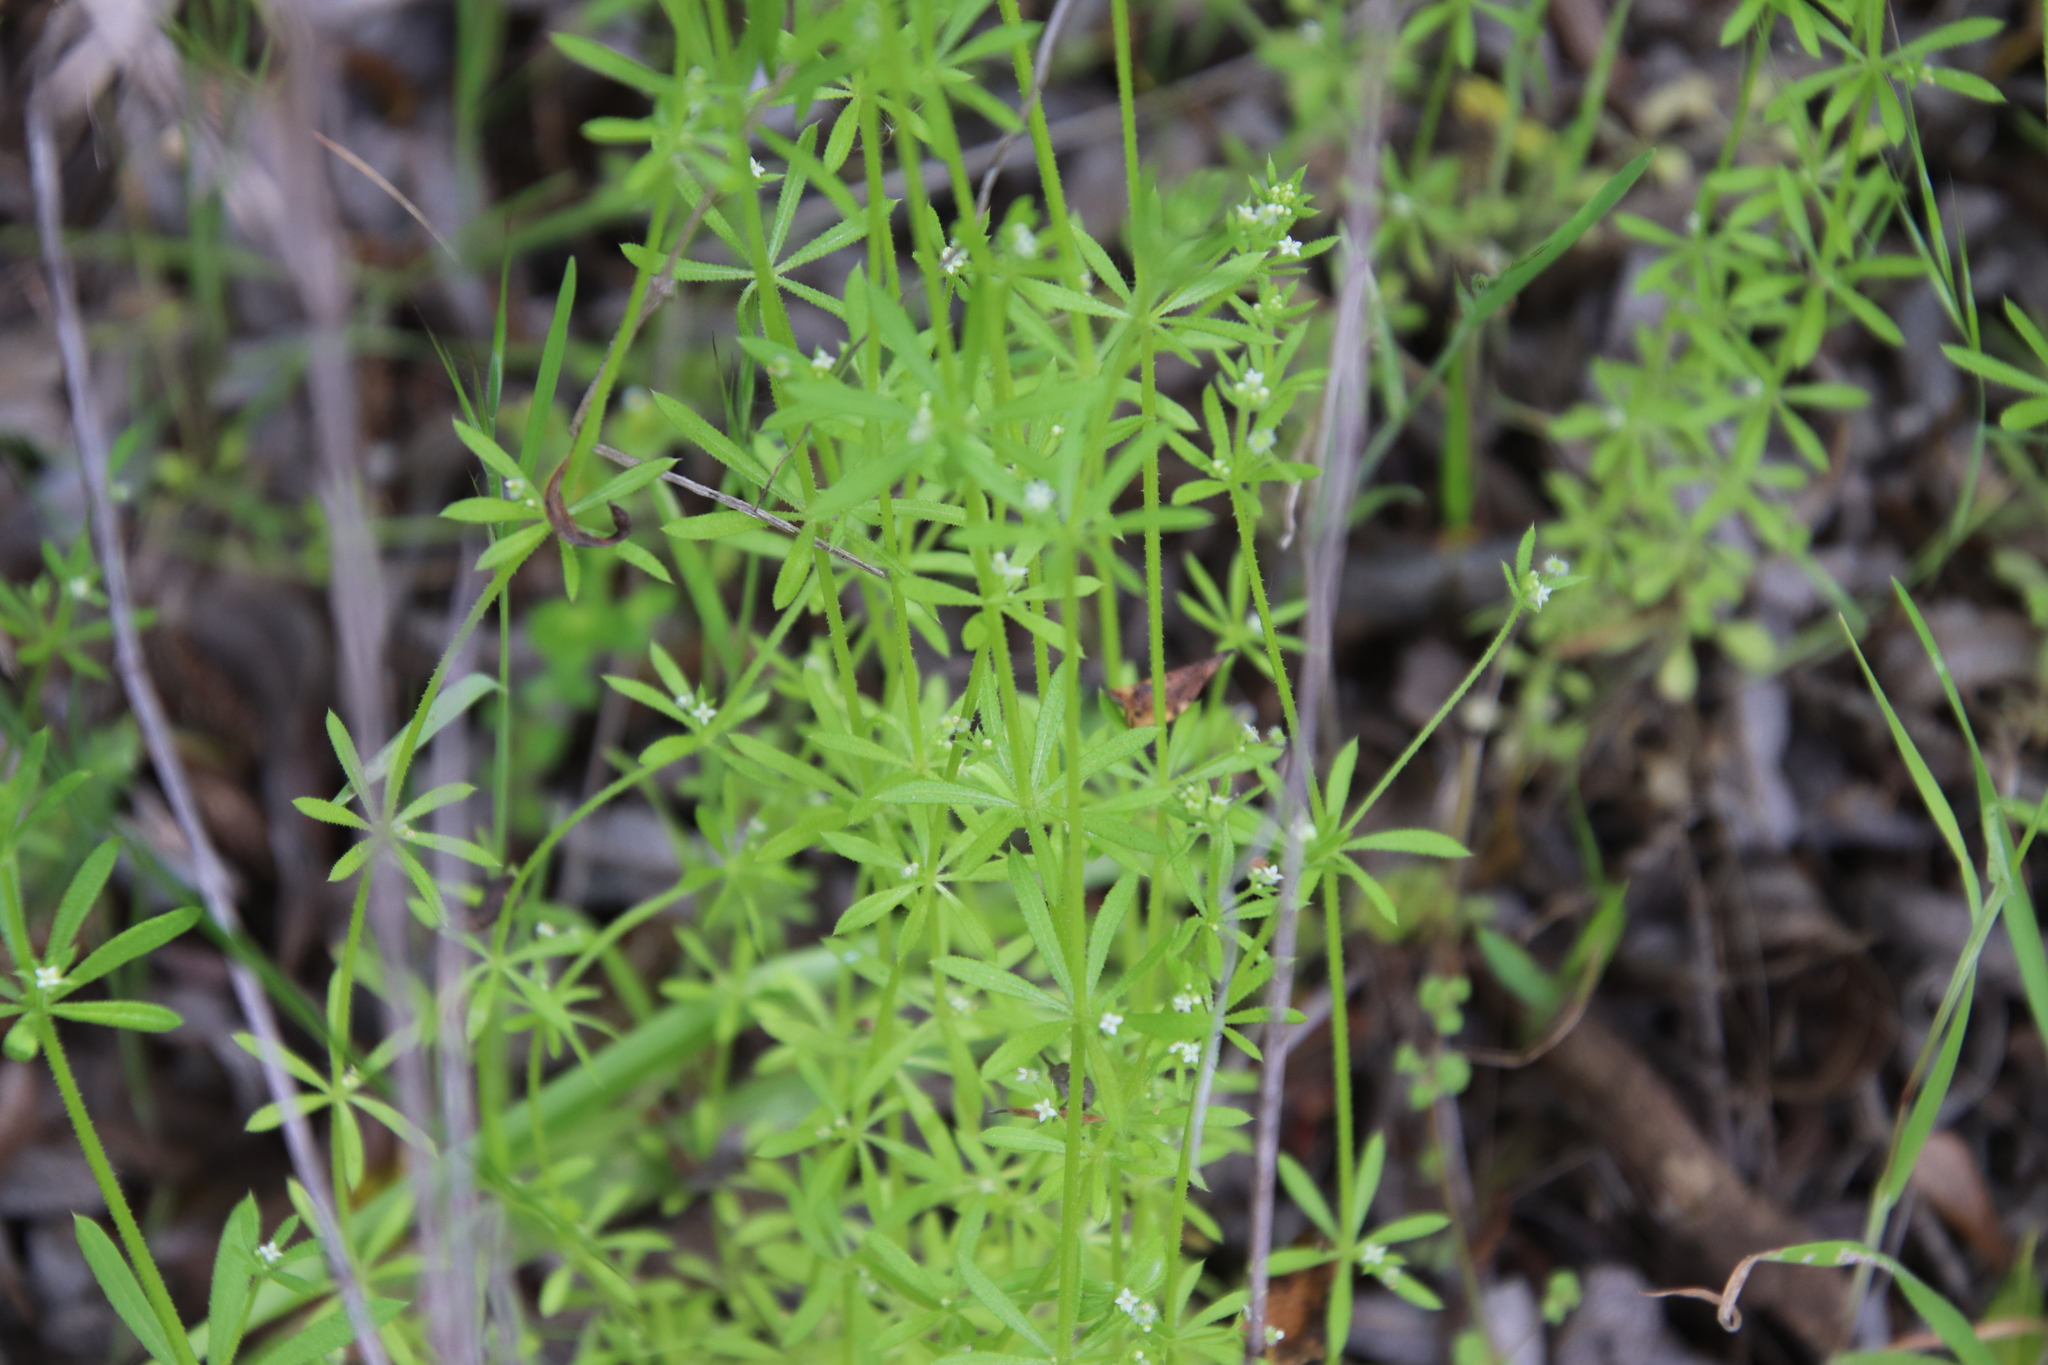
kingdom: Plantae
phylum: Tracheophyta
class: Magnoliopsida
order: Gentianales
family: Rubiaceae
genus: Galium
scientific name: Galium aparine
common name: Cleavers
